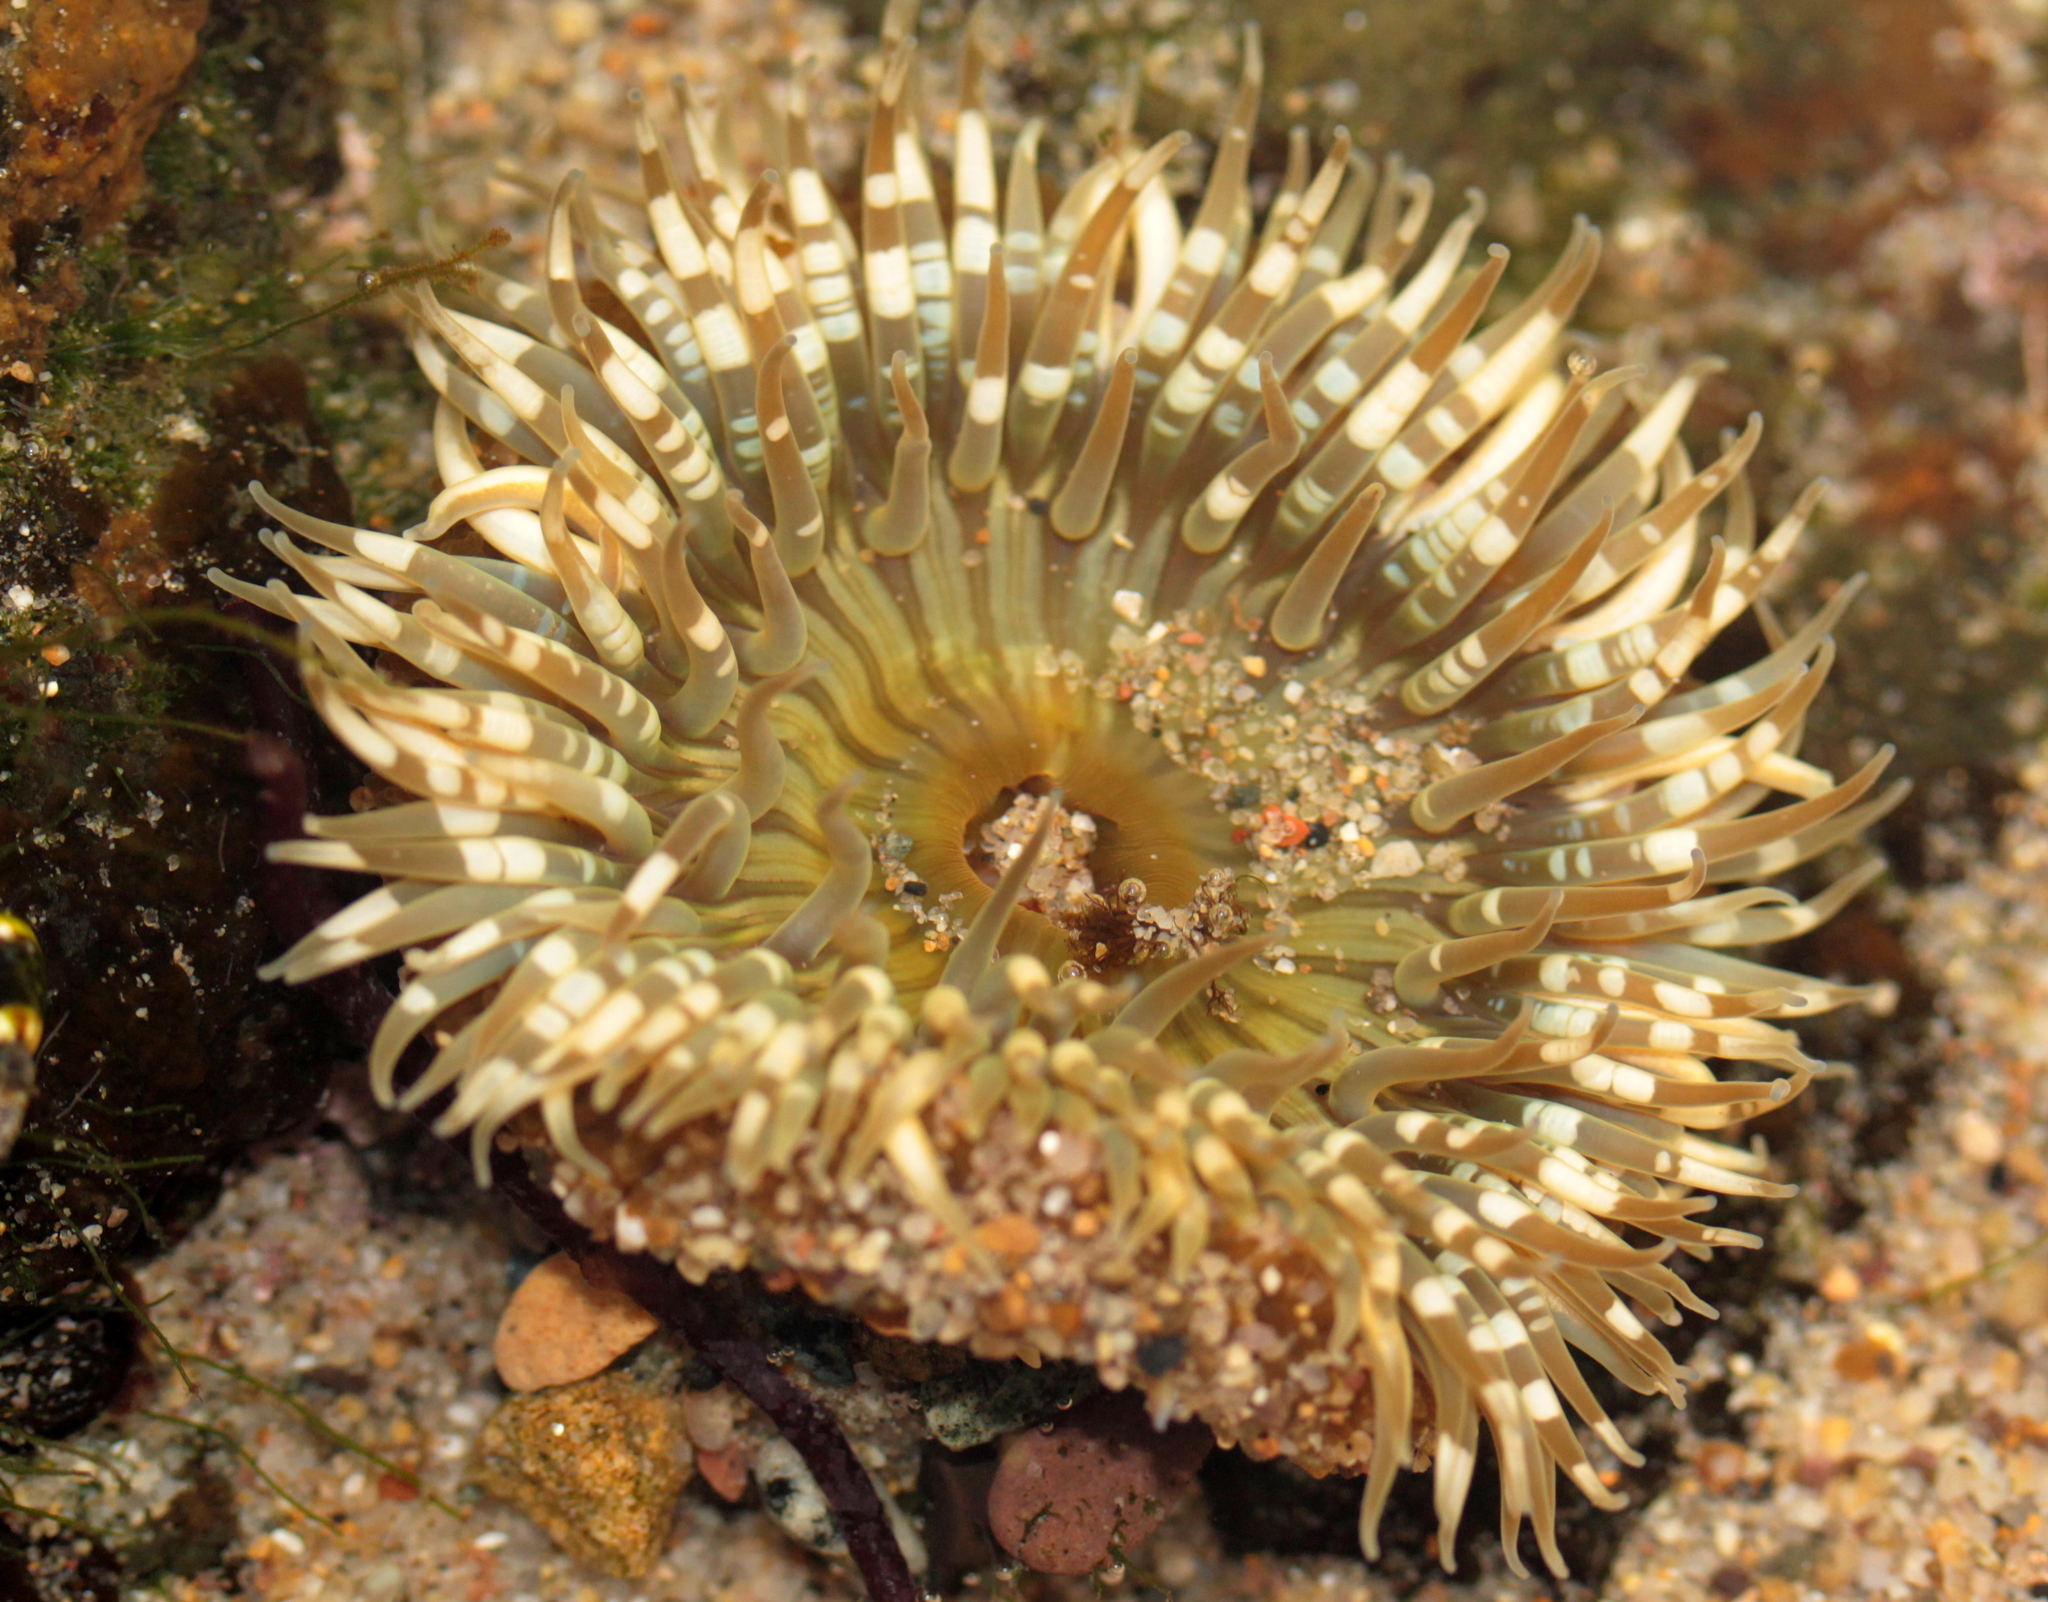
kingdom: Animalia
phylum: Cnidaria
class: Anthozoa
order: Actiniaria
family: Actiniidae
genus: Anthopleura
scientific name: Anthopleura sola
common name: Sun anemone
